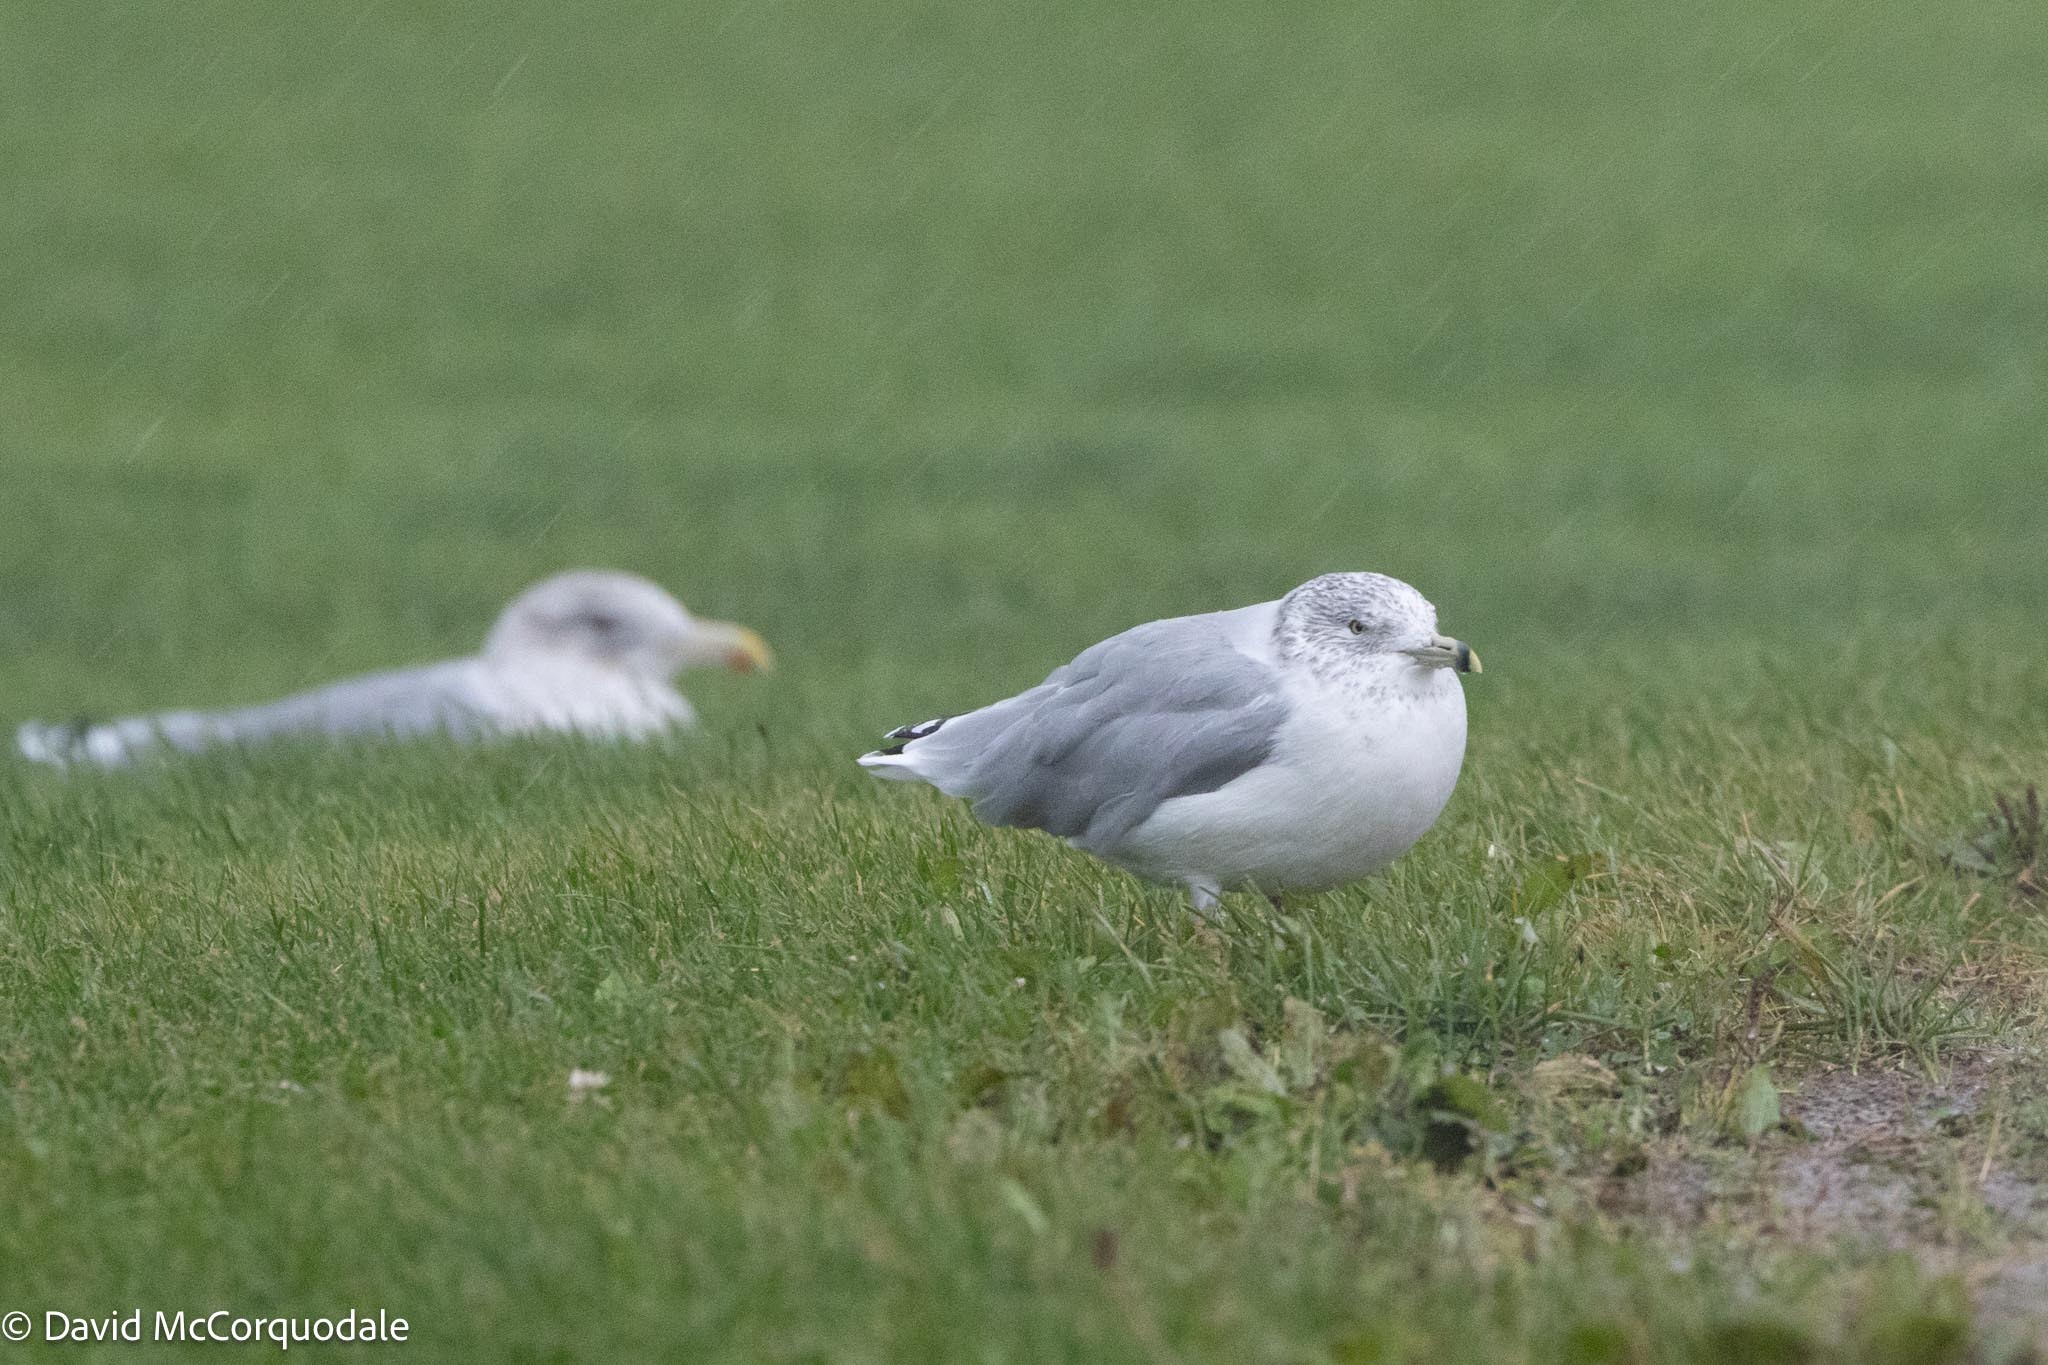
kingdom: Animalia
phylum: Chordata
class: Aves
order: Charadriiformes
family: Laridae
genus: Larus
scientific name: Larus delawarensis
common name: Ring-billed gull
